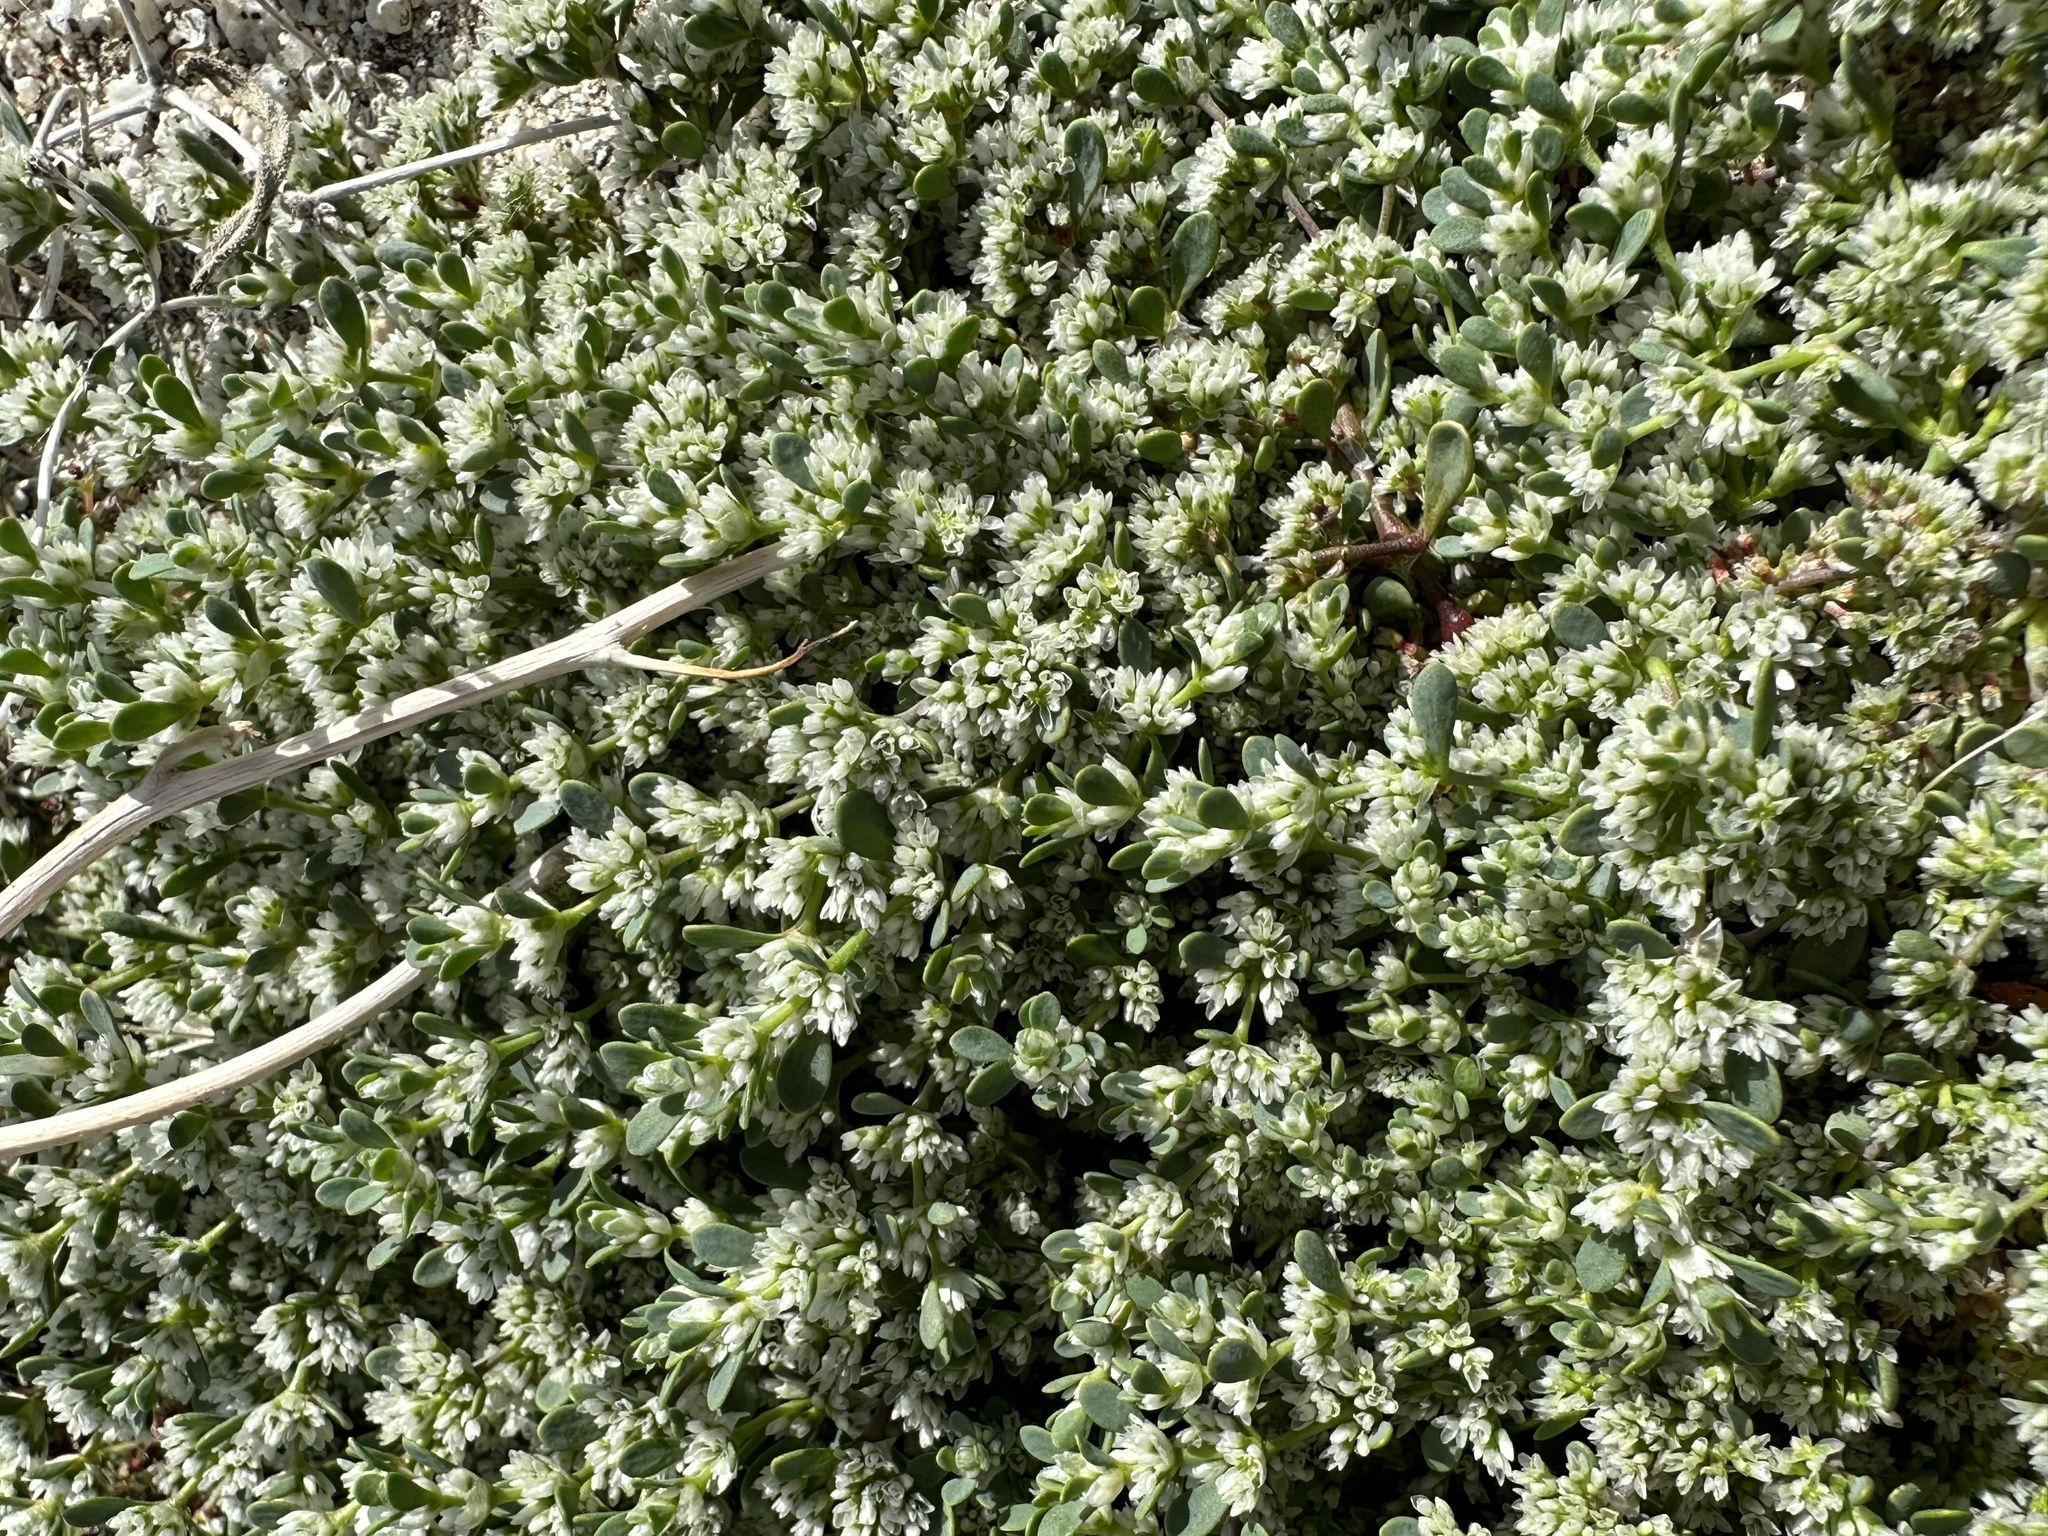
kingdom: Plantae
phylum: Tracheophyta
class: Magnoliopsida
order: Caryophyllales
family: Caryophyllaceae
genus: Achyronychia
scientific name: Achyronychia cooperi
